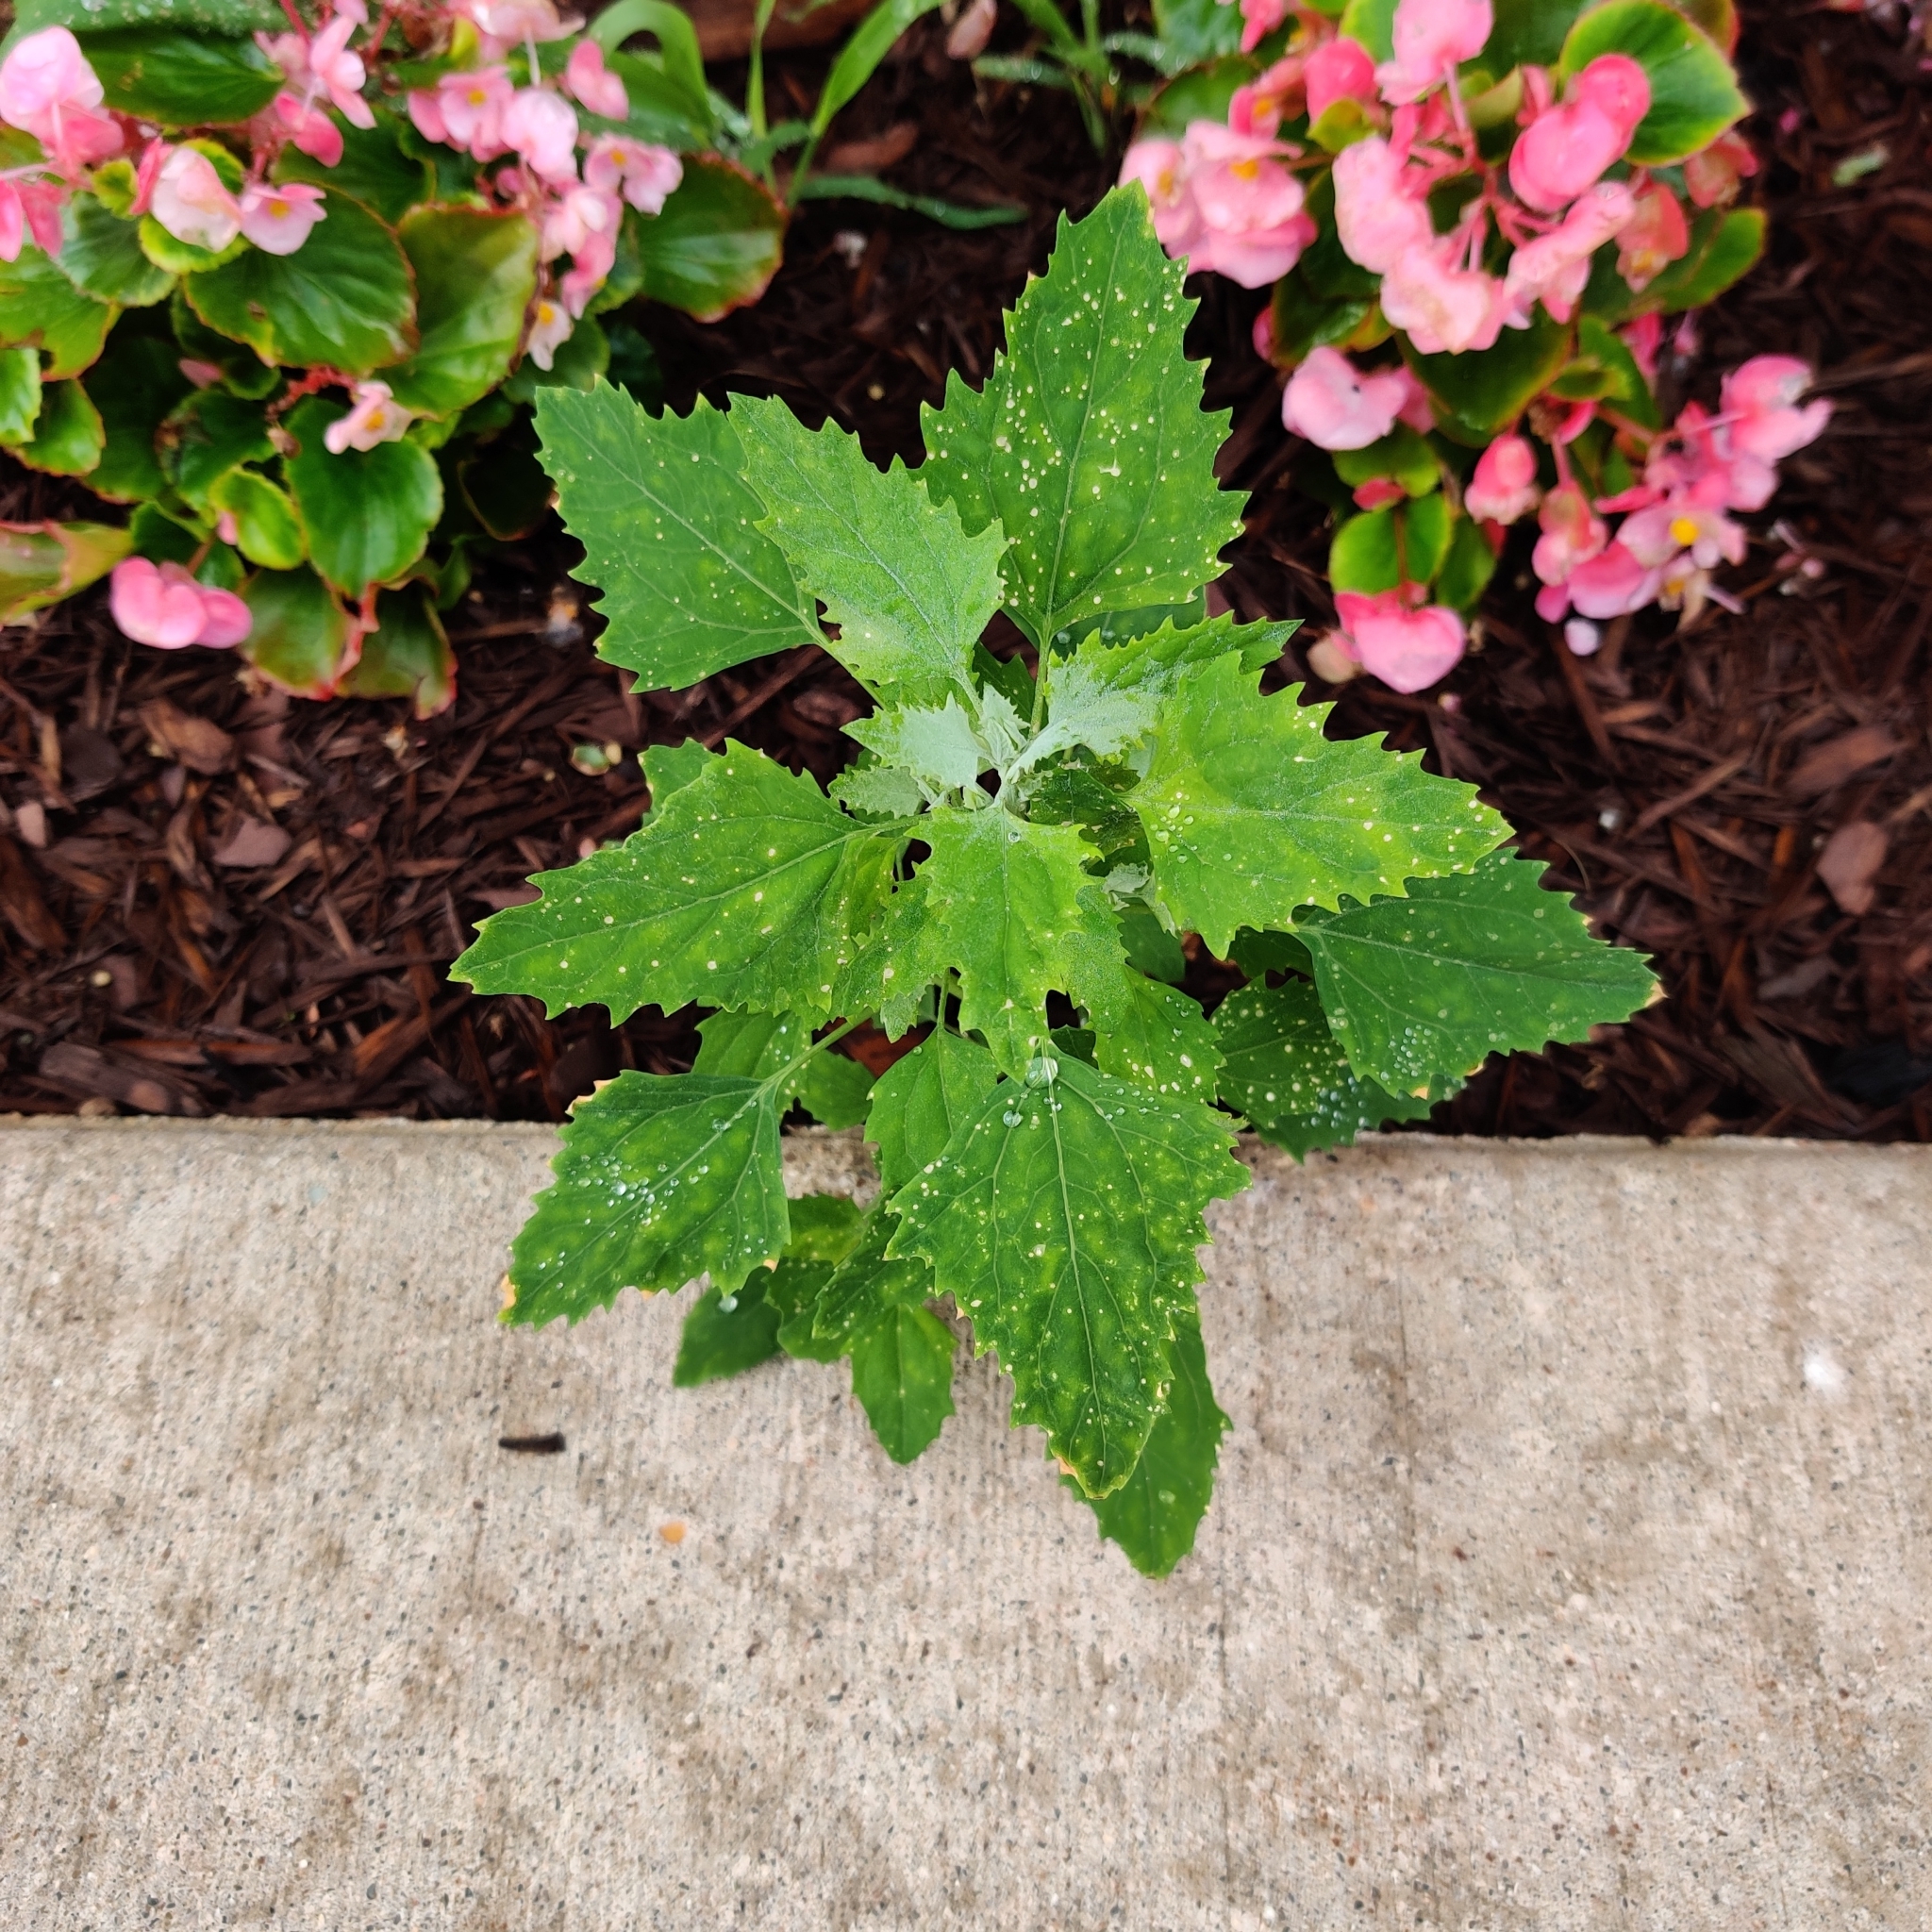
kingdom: Plantae
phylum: Tracheophyta
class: Magnoliopsida
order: Caryophyllales
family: Amaranthaceae
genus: Chenopodium
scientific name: Chenopodium album
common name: Fat-hen
